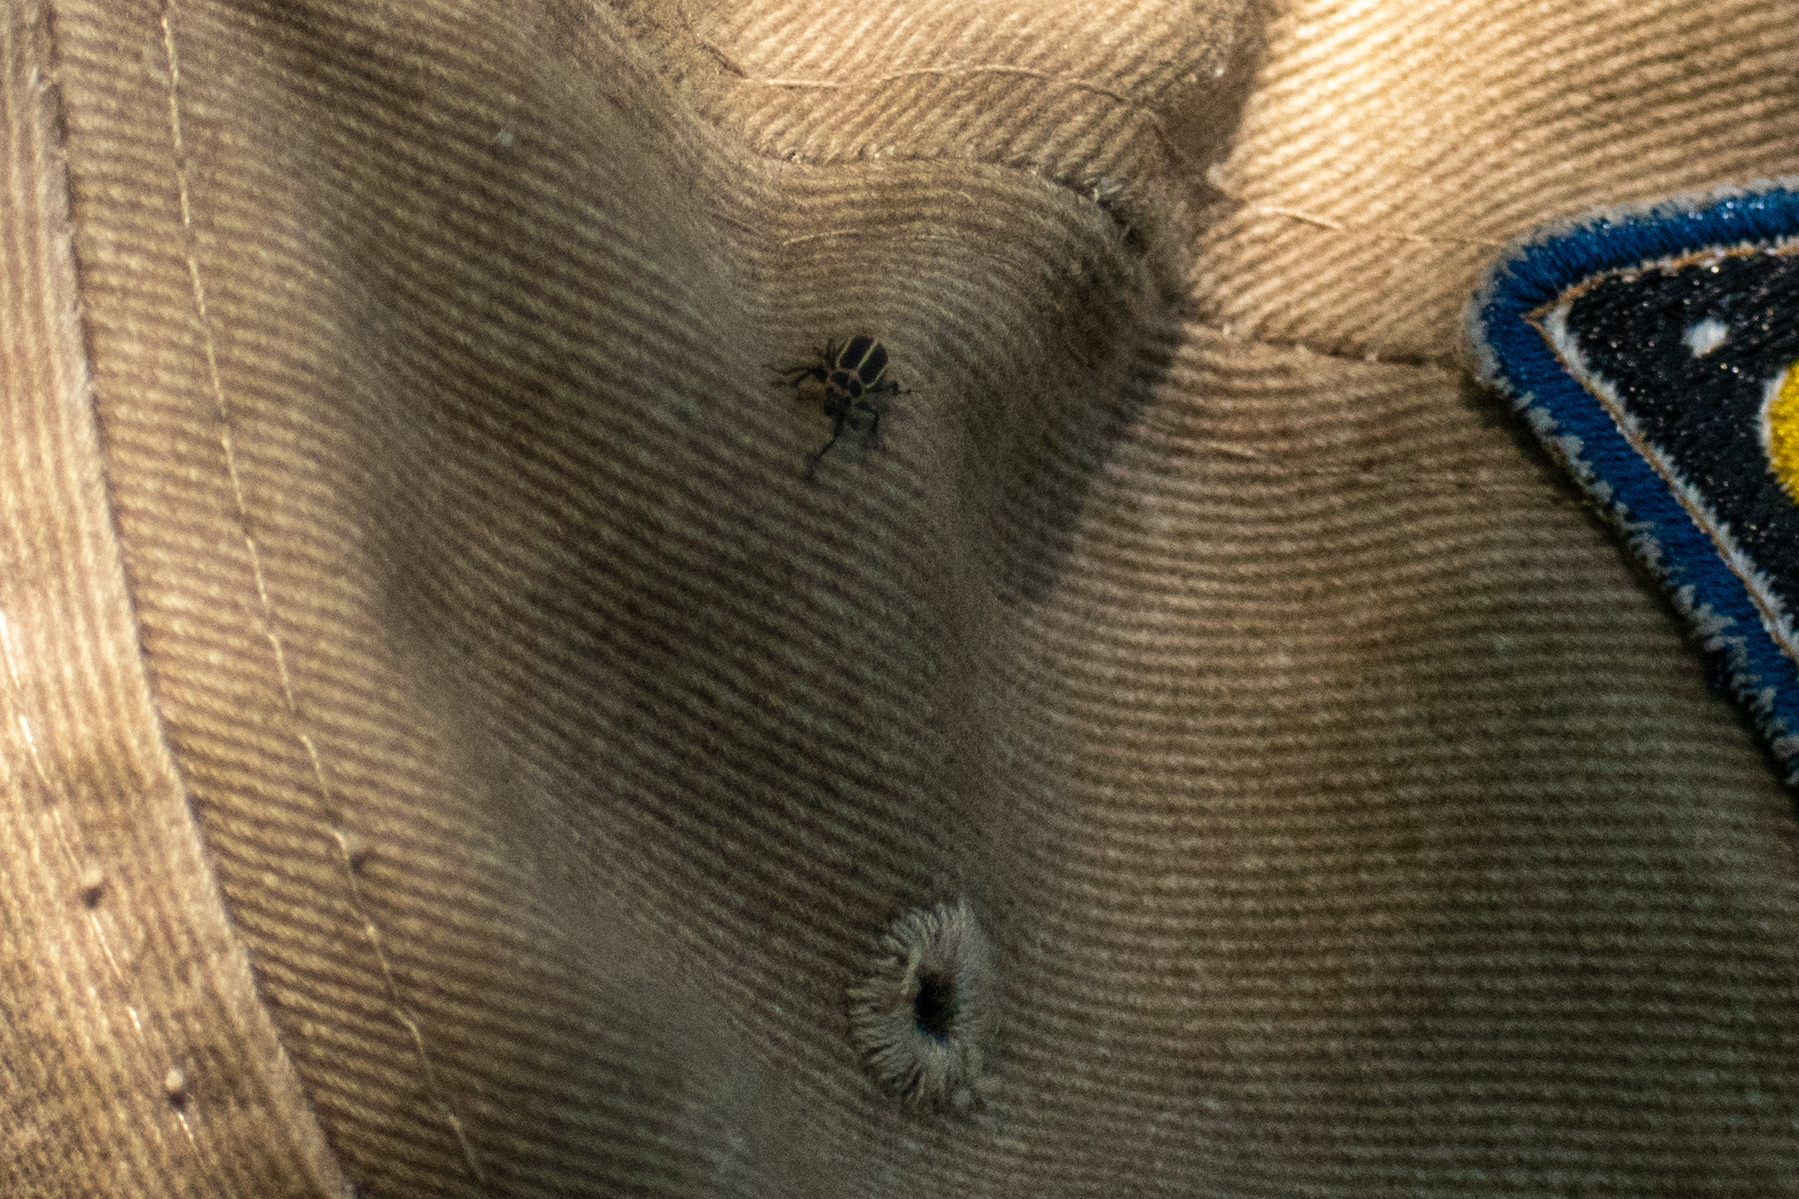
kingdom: Animalia
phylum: Arthropoda
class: Insecta
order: Coleoptera
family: Curculionidae
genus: Eudiagogus
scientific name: Eudiagogus episcopalis
